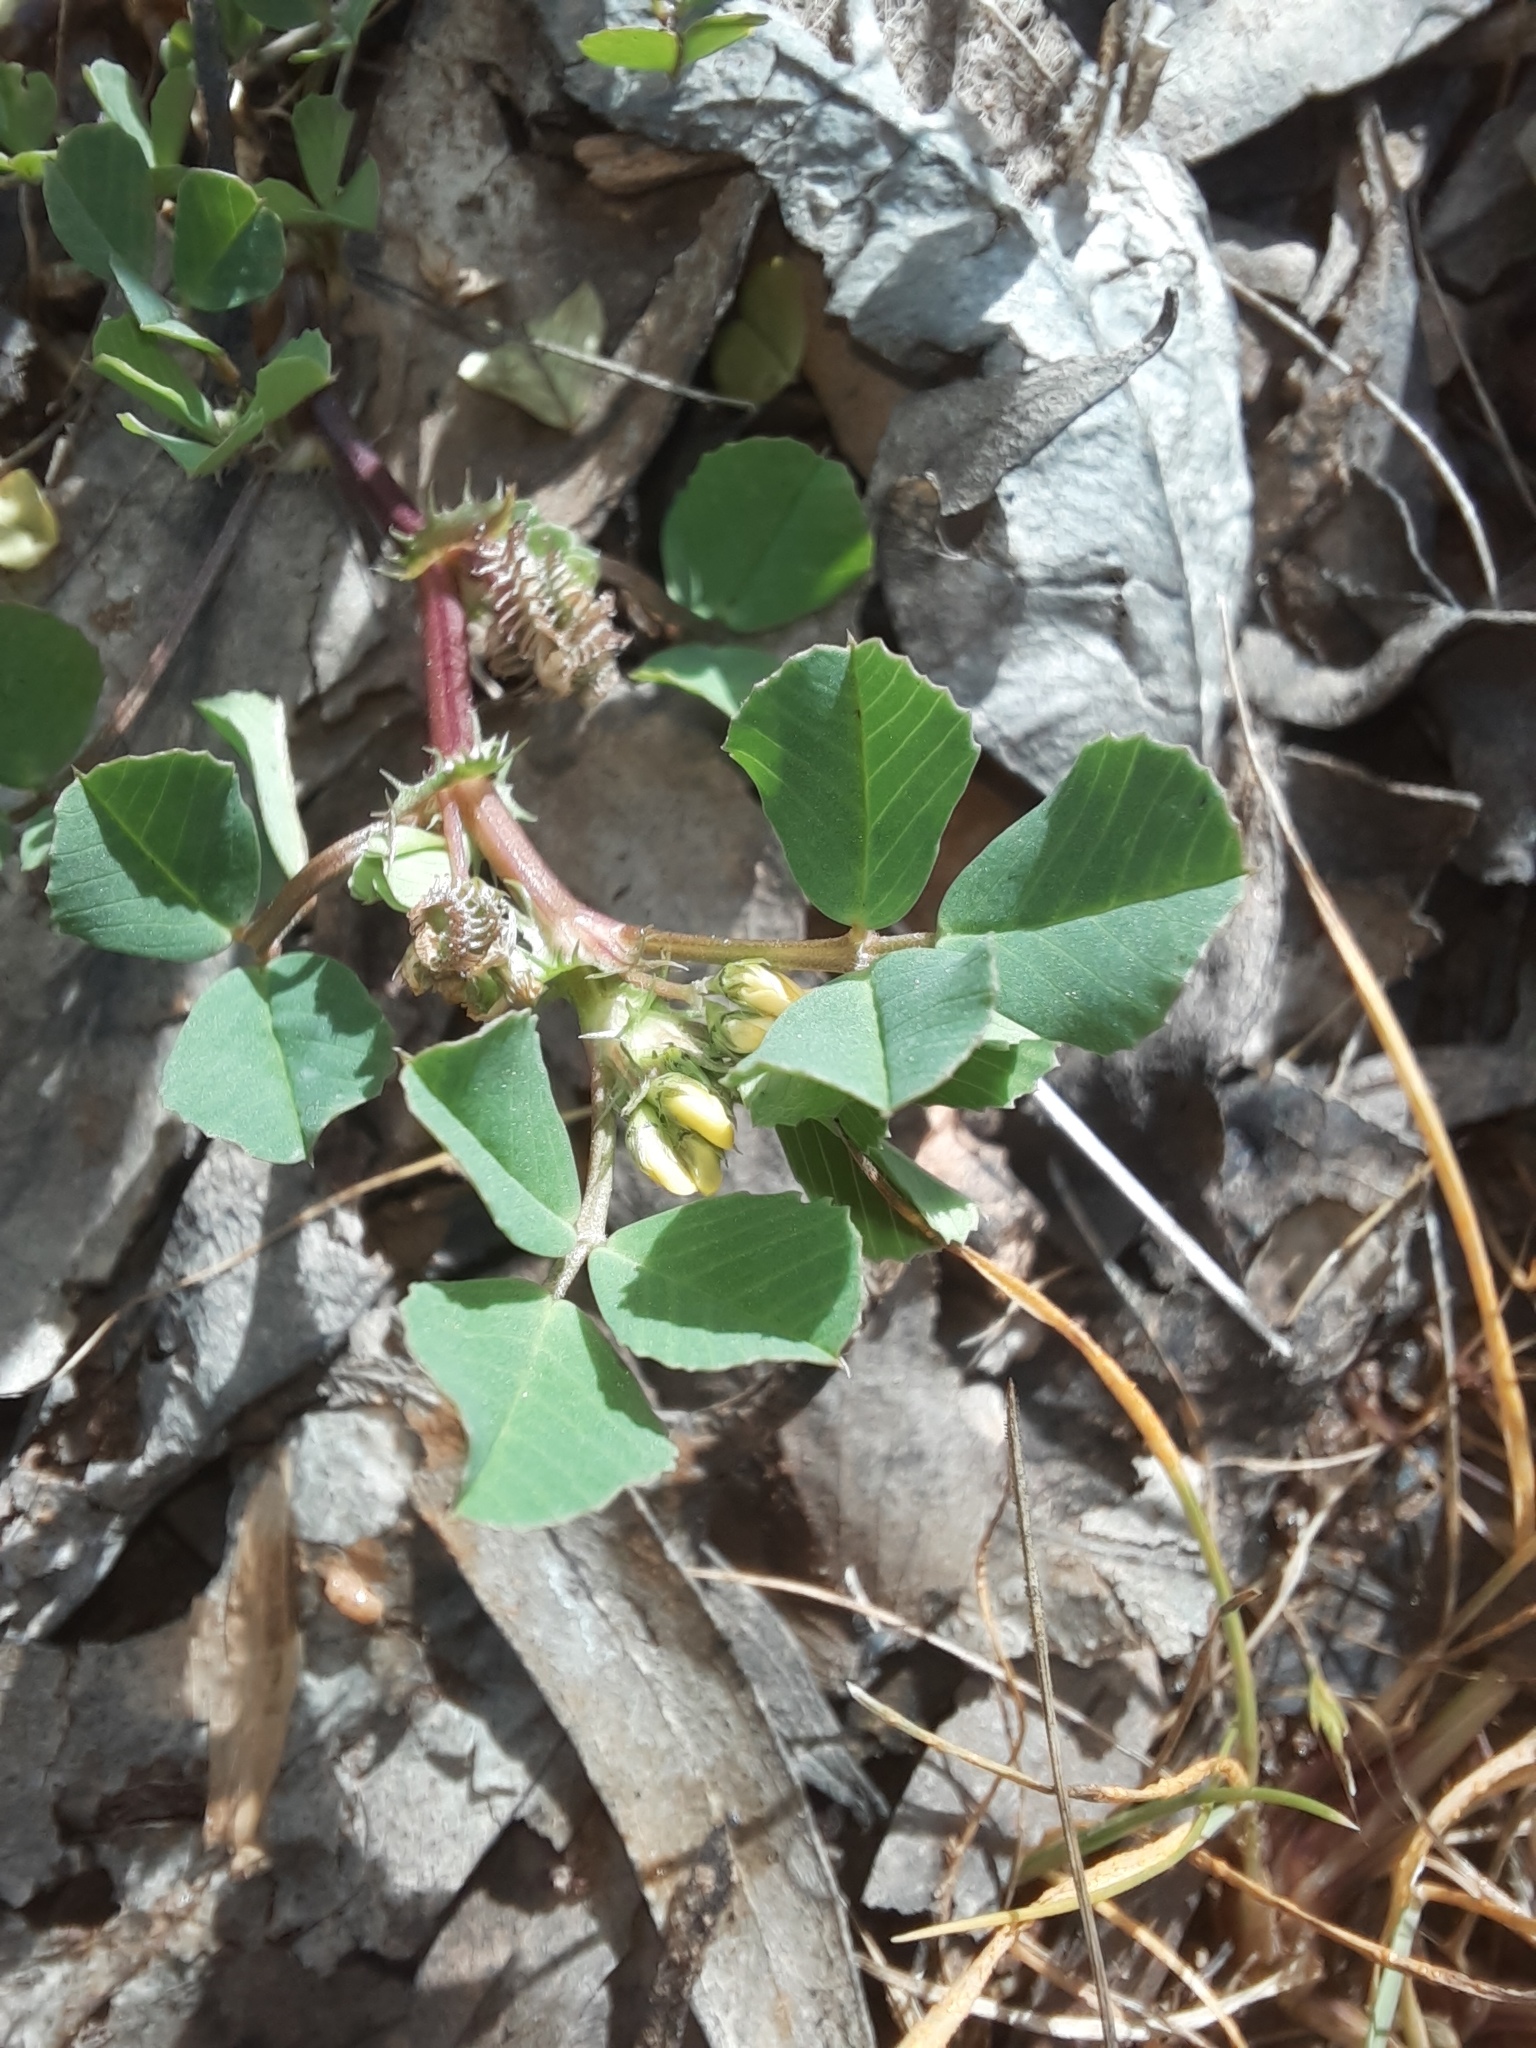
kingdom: Plantae
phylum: Tracheophyta
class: Magnoliopsida
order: Fabales
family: Fabaceae
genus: Medicago
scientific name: Medicago polymorpha
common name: Burclover
